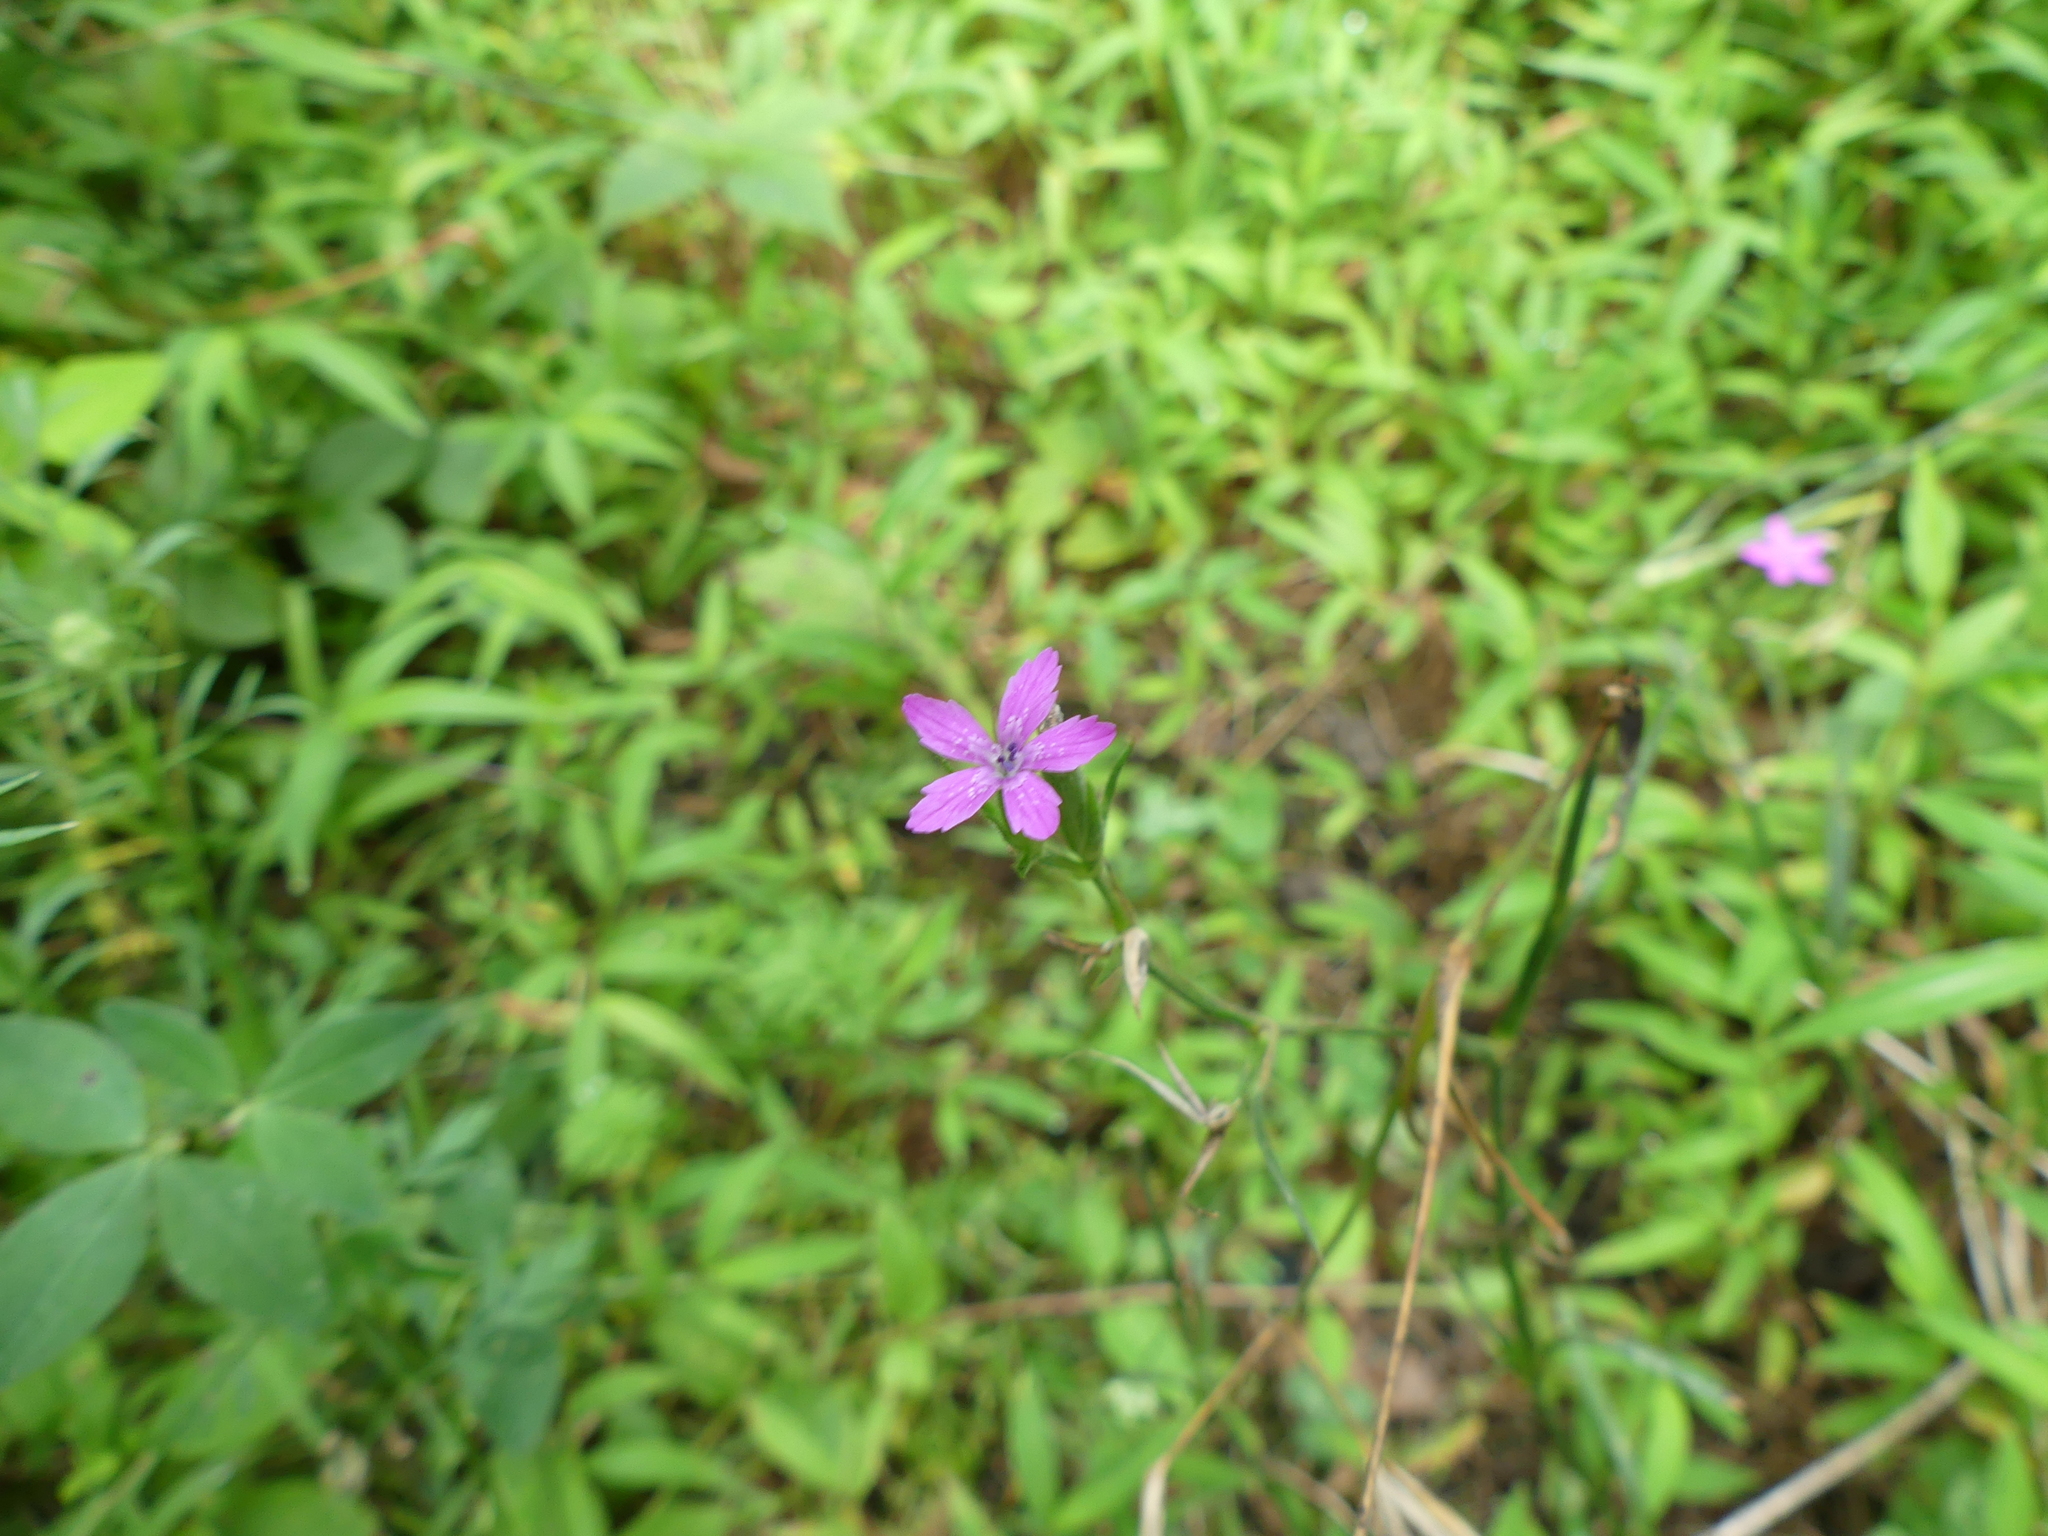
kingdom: Plantae
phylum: Tracheophyta
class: Magnoliopsida
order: Caryophyllales
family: Caryophyllaceae
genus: Dianthus
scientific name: Dianthus armeria
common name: Deptford pink
